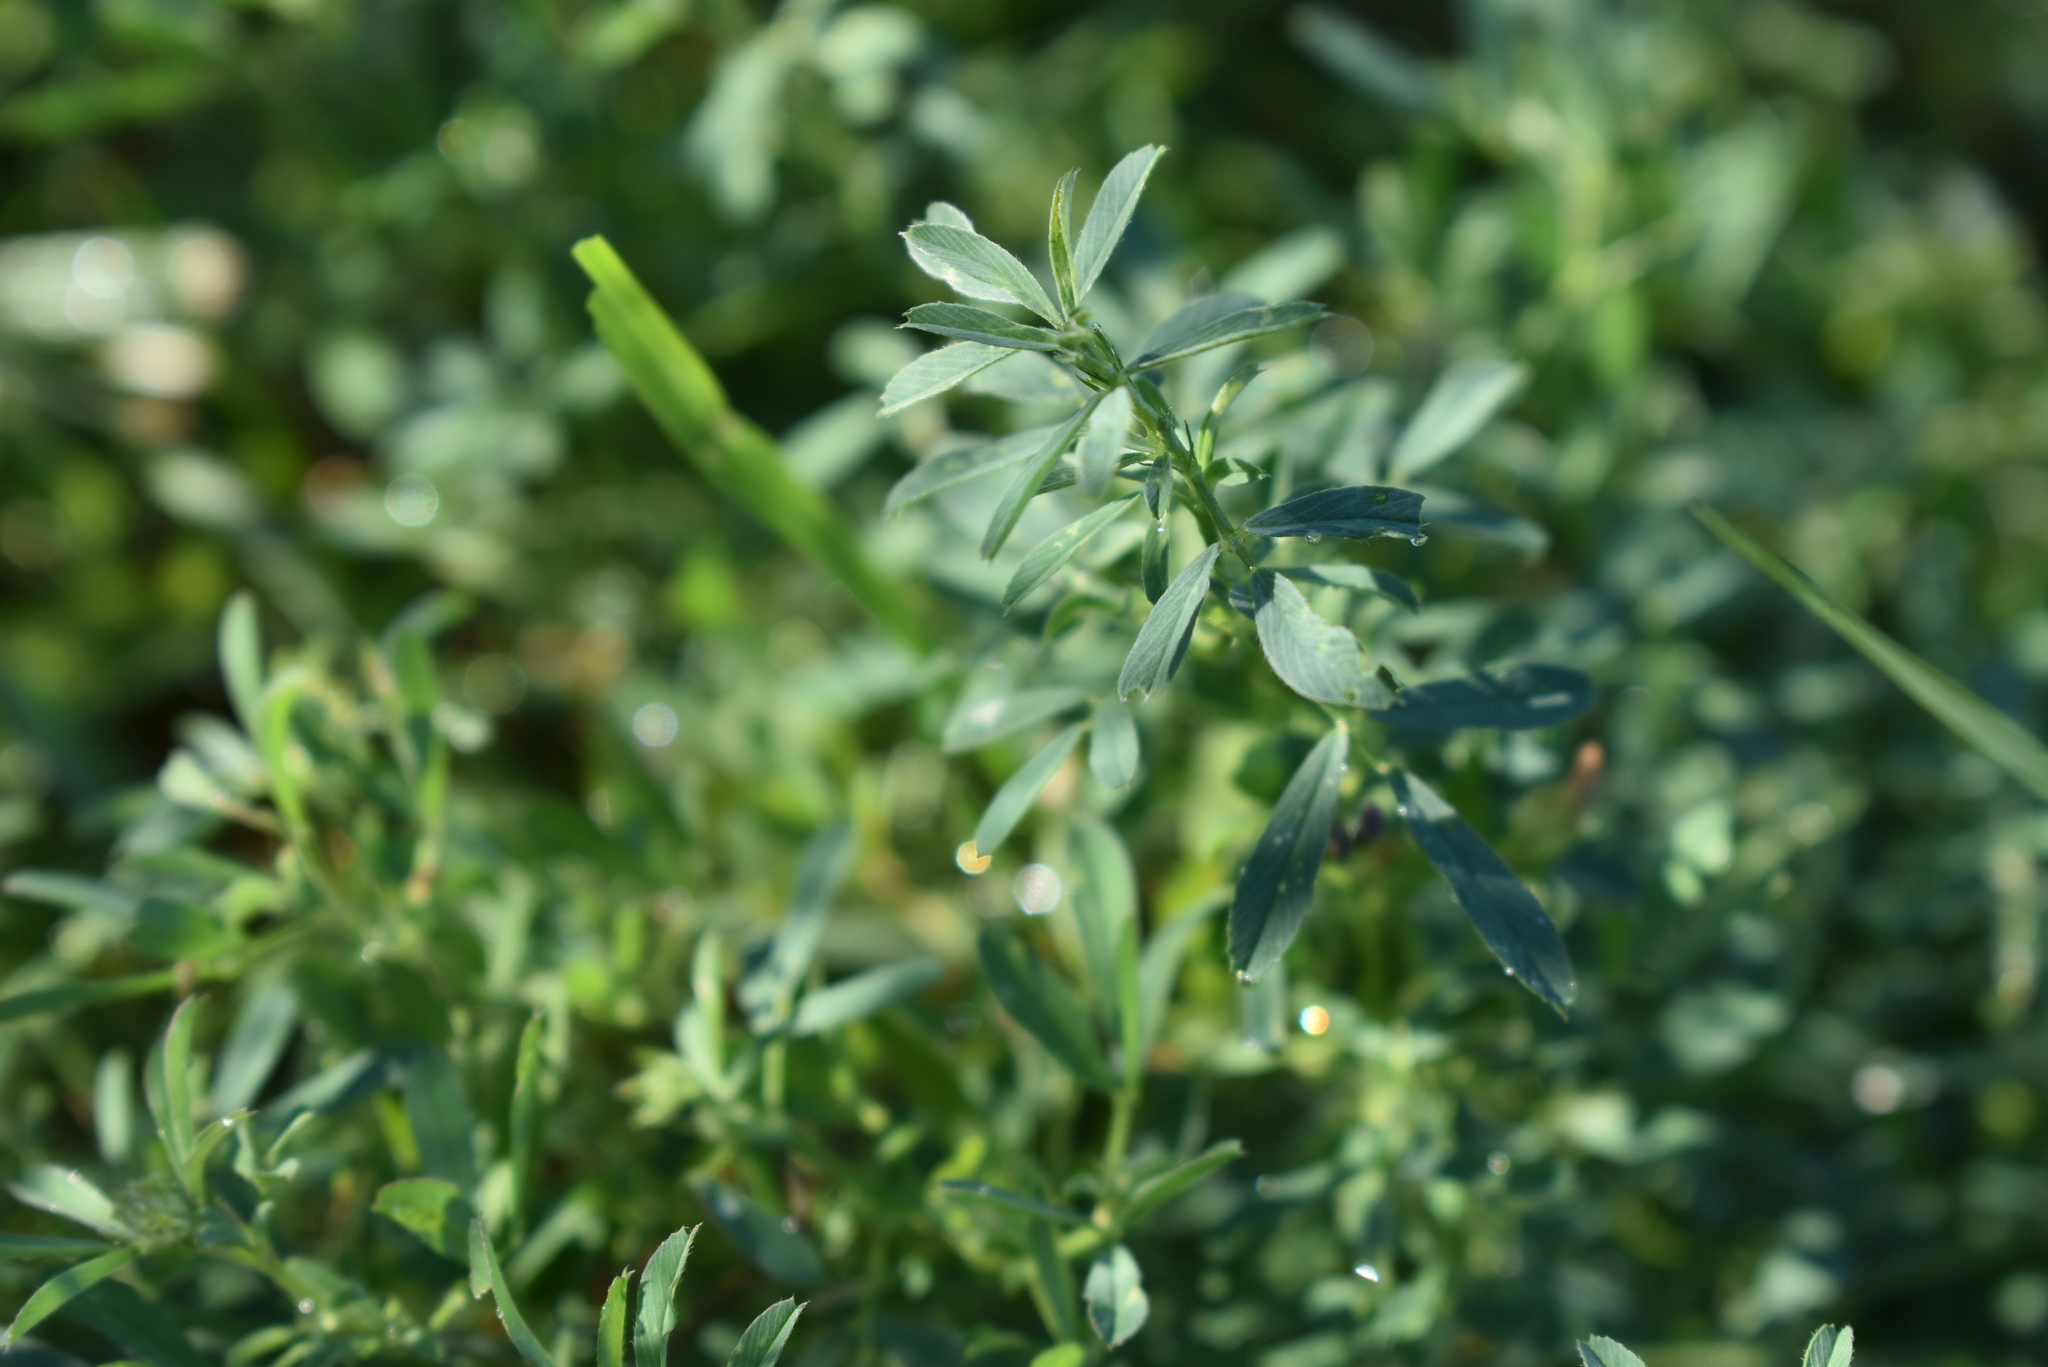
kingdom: Plantae
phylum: Tracheophyta
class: Magnoliopsida
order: Fabales
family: Fabaceae
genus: Medicago
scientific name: Medicago varia
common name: Sand lucerne
